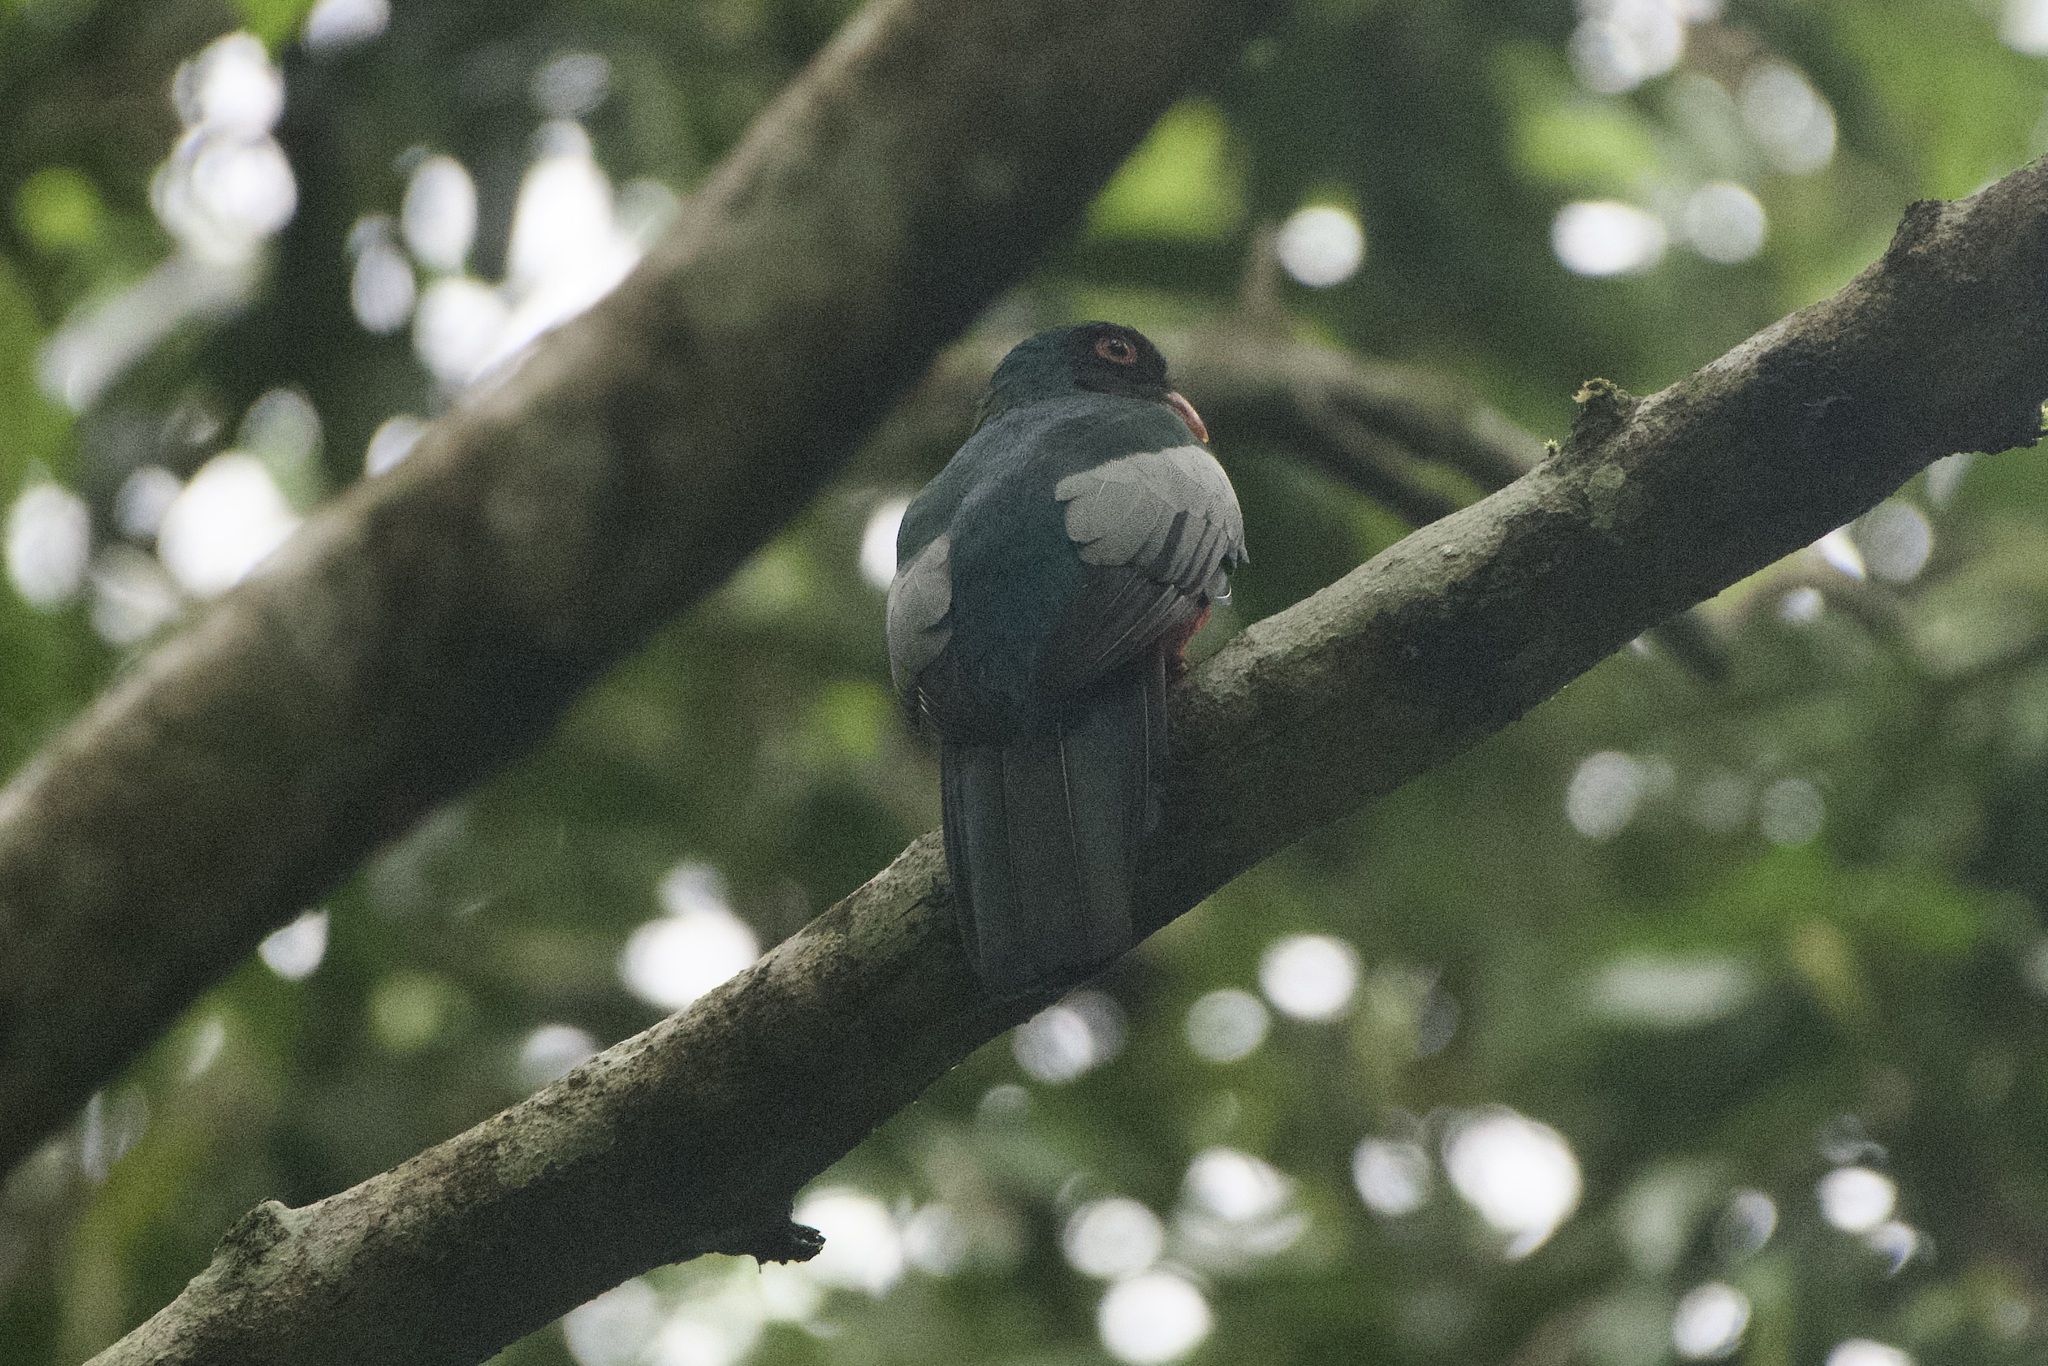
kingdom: Animalia
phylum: Chordata
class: Aves
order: Trogoniformes
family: Trogonidae
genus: Trogon
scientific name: Trogon massena
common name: Slaty-tailed trogon
